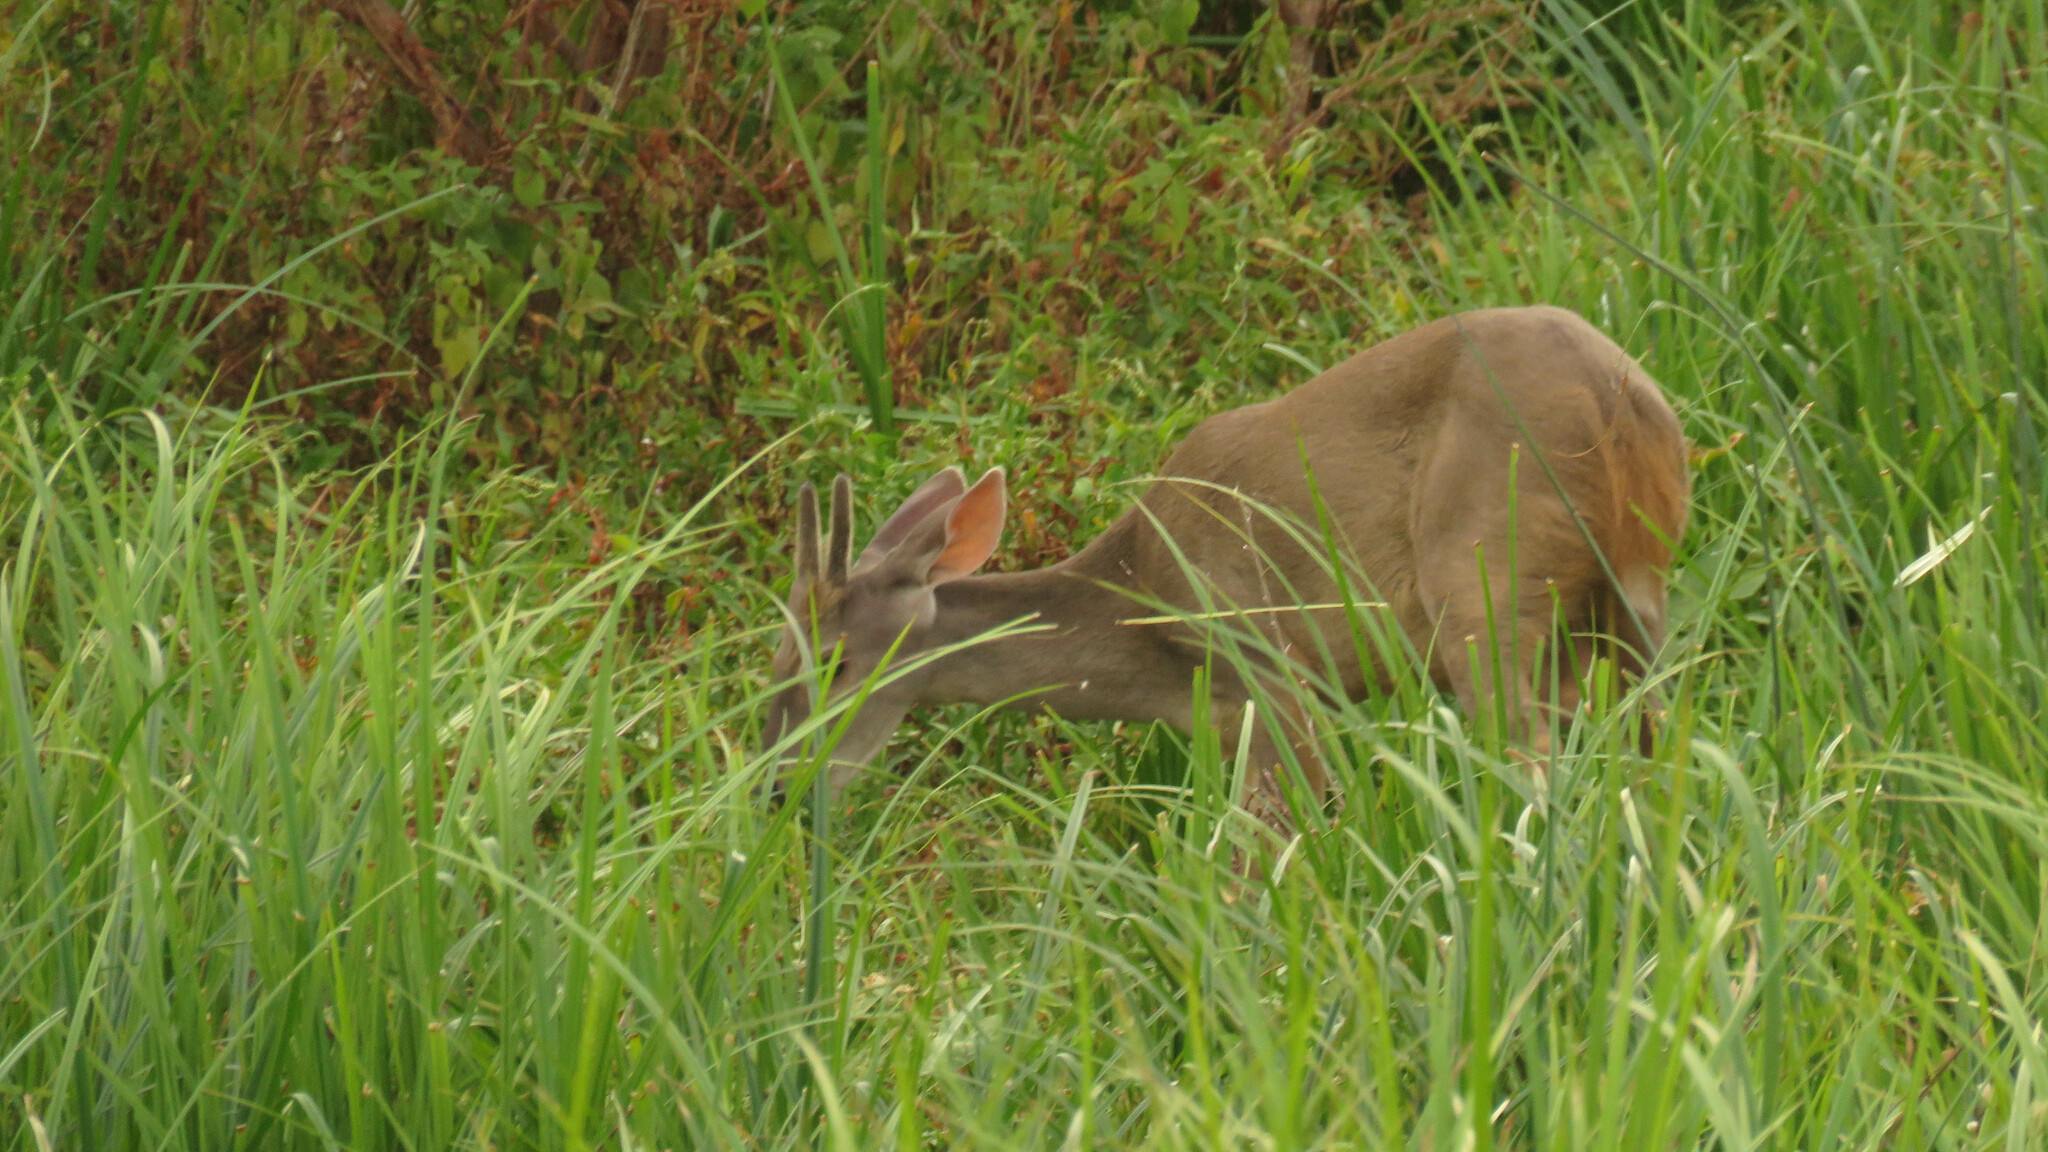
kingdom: Animalia
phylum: Chordata
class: Mammalia
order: Artiodactyla
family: Cervidae
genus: Mazama
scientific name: Mazama gouazoubira
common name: Gray brocket
